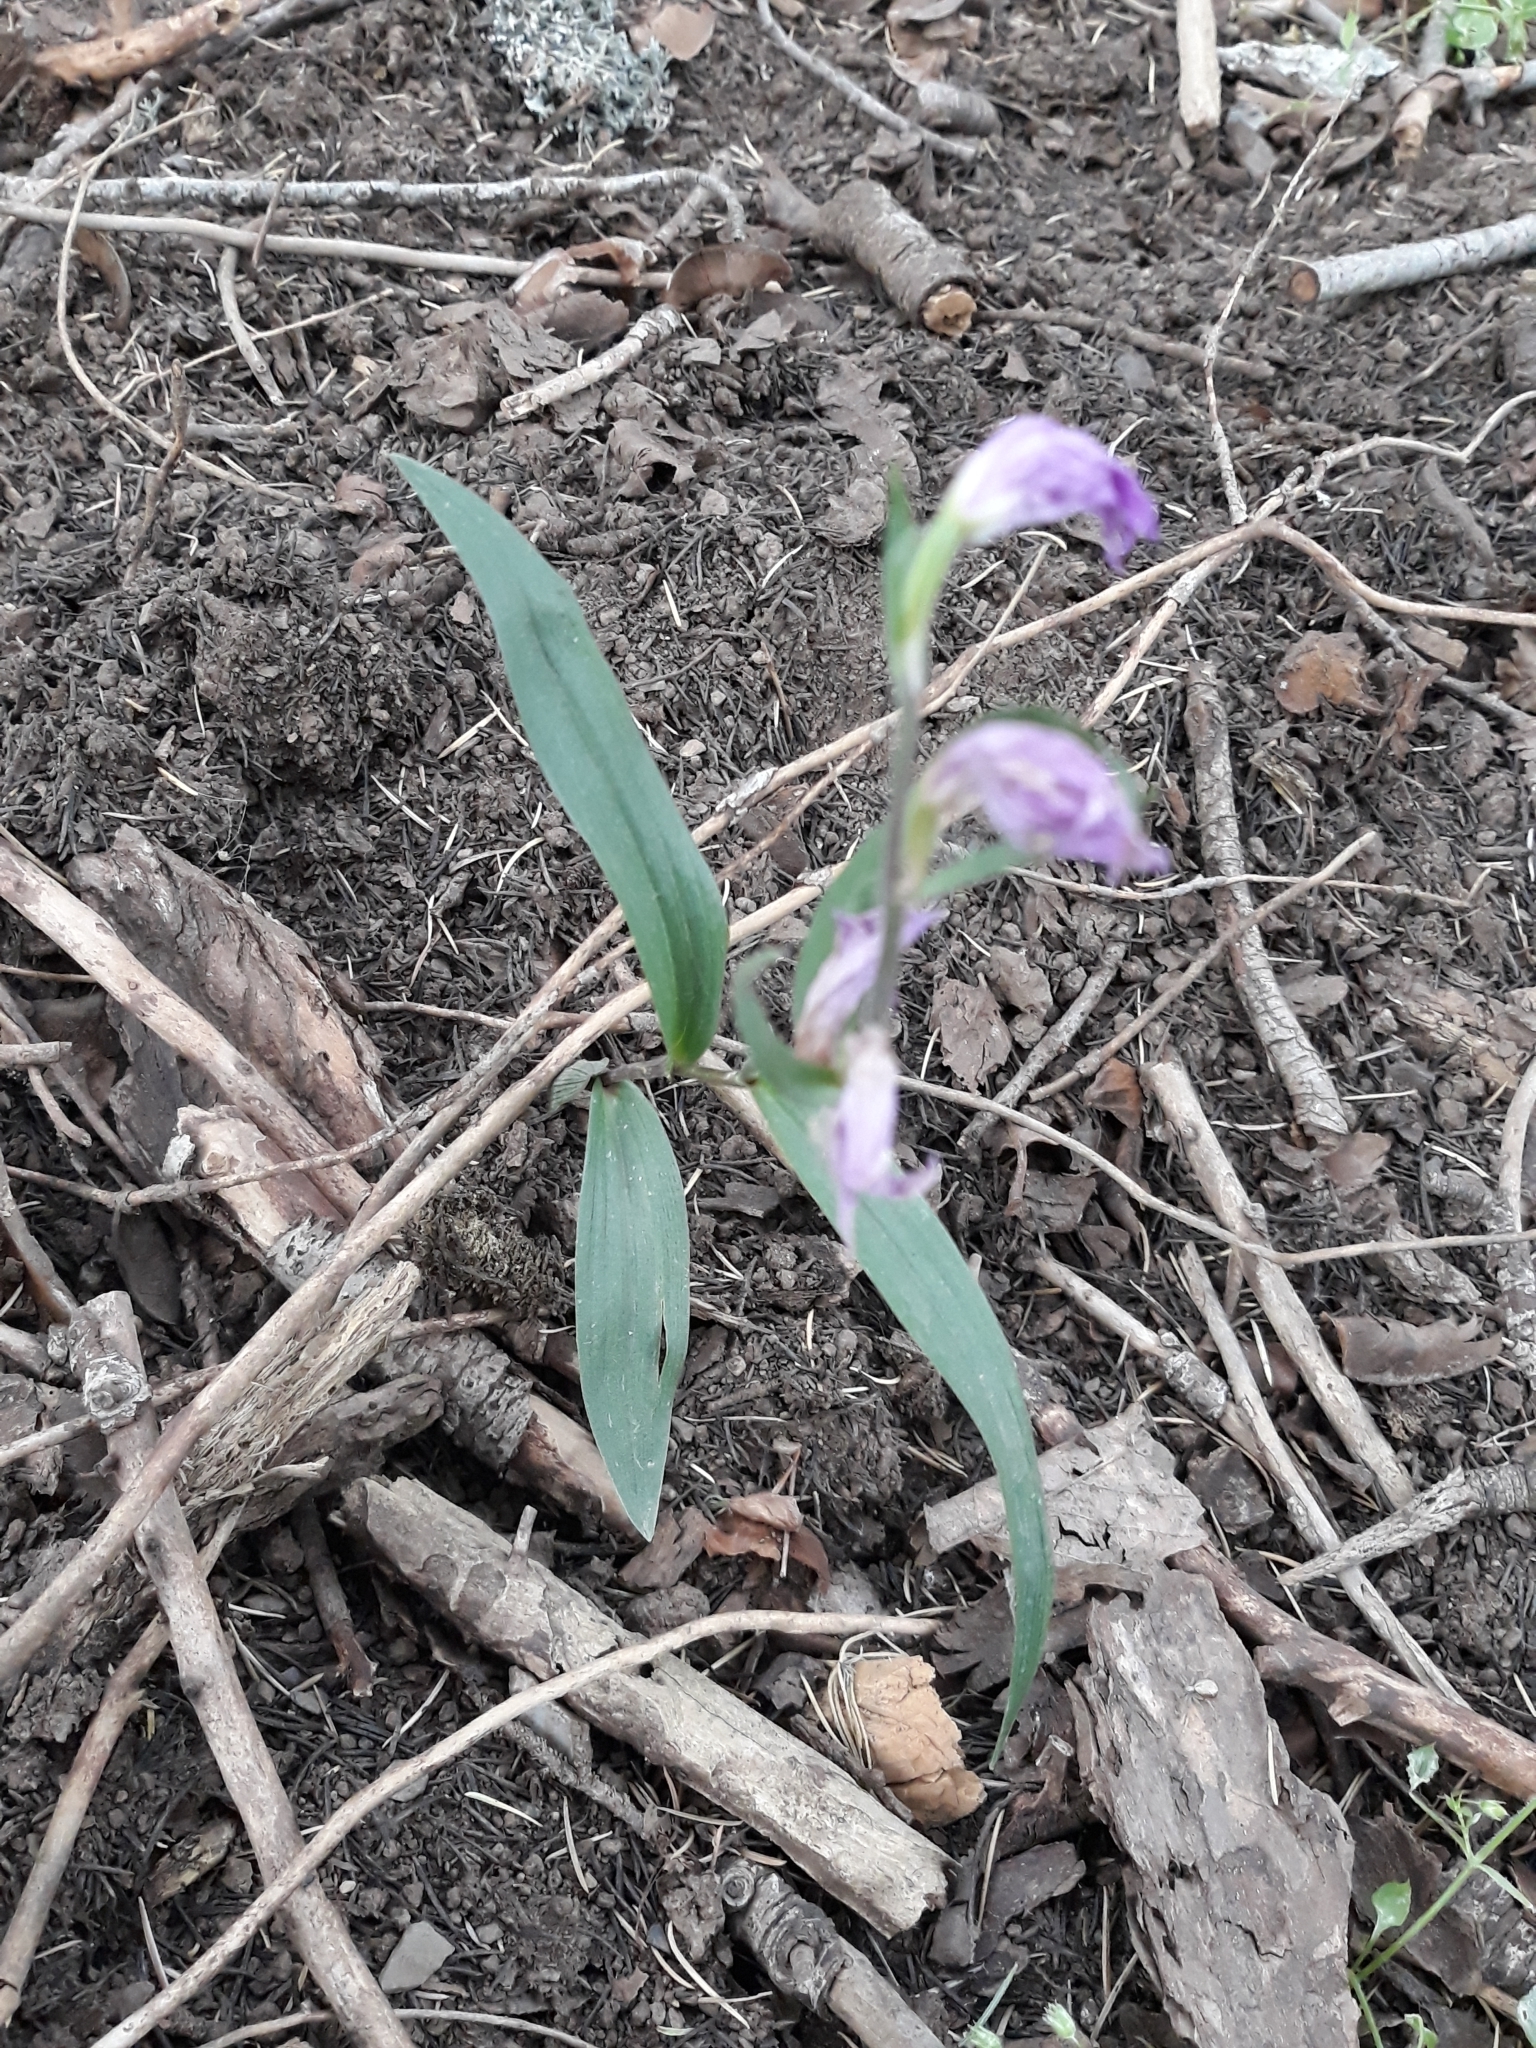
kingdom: Plantae
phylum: Tracheophyta
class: Liliopsida
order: Asparagales
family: Orchidaceae
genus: Cephalanthera
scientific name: Cephalanthera rubra
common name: Red helleborine
